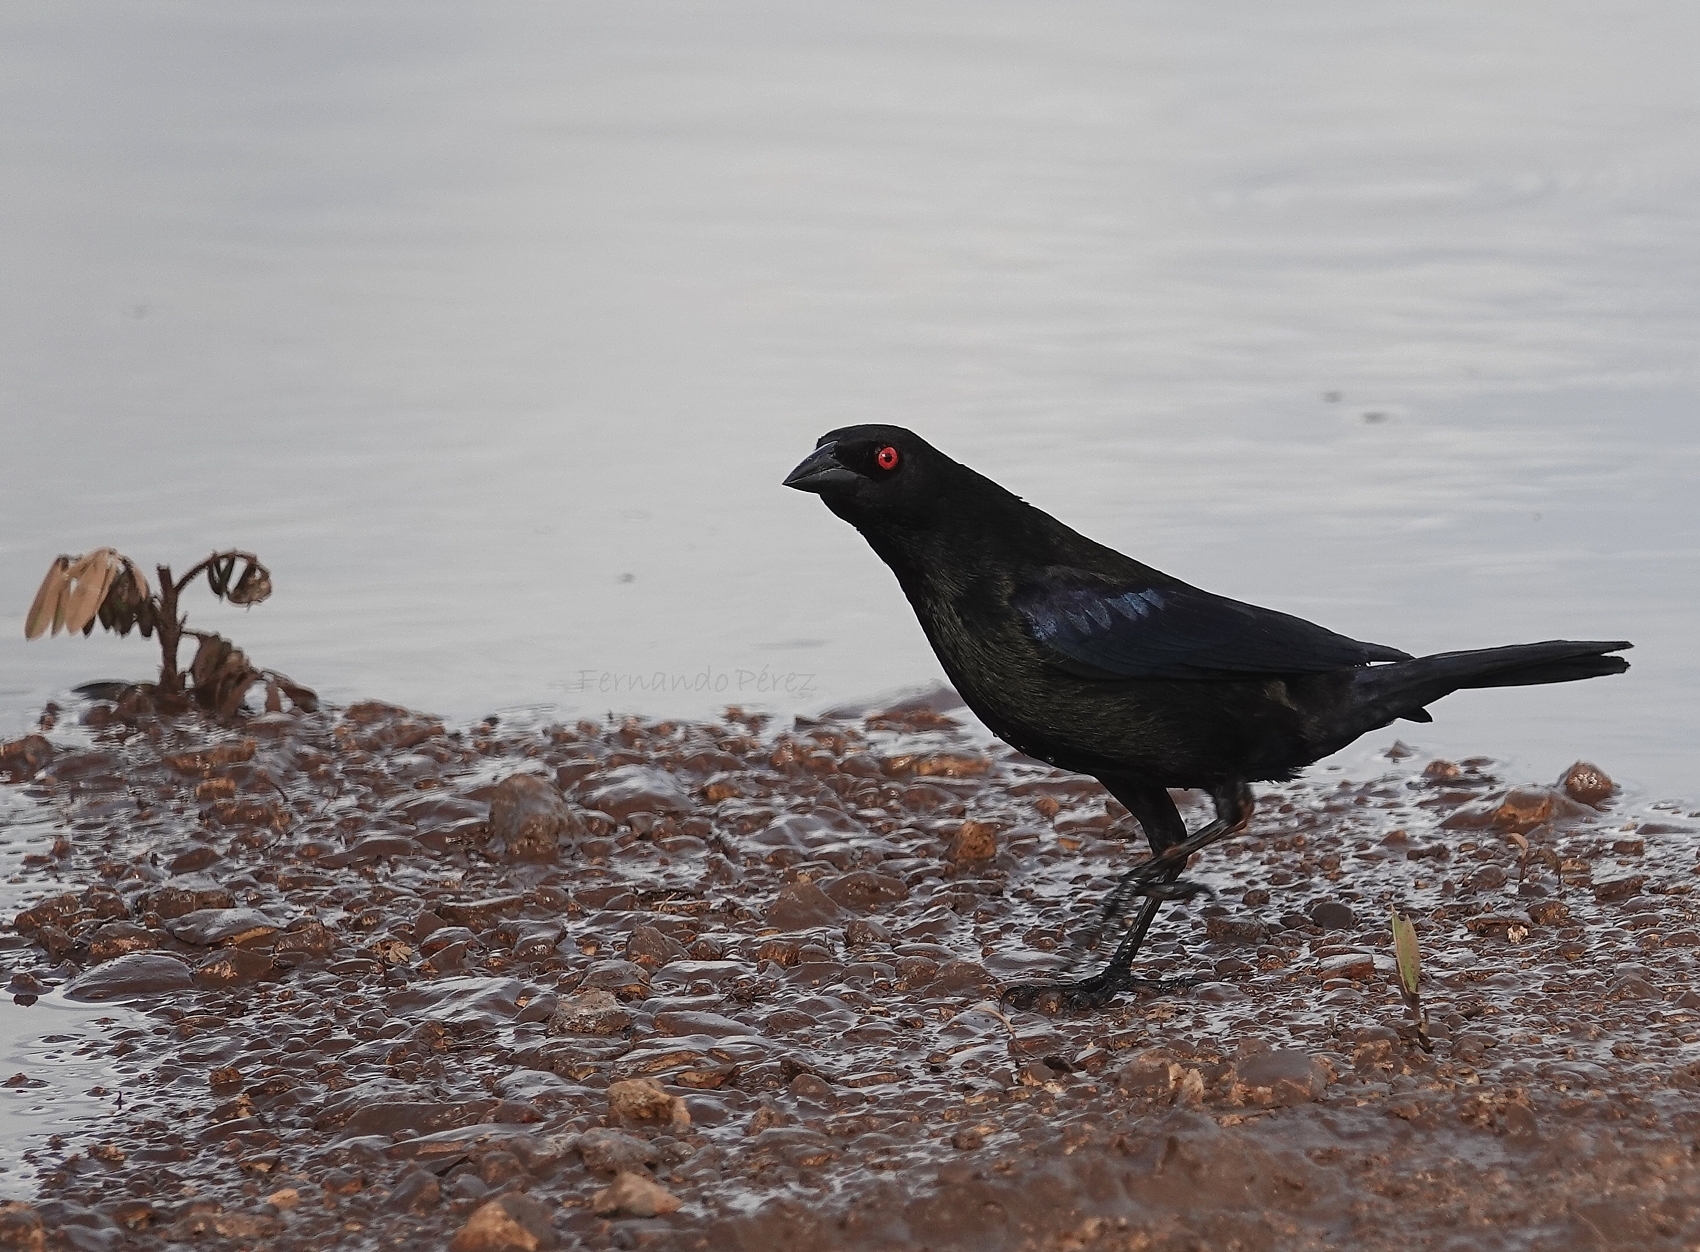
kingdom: Animalia
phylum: Chordata
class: Aves
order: Passeriformes
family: Icteridae
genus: Molothrus
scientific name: Molothrus aeneus
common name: Bronzed cowbird
